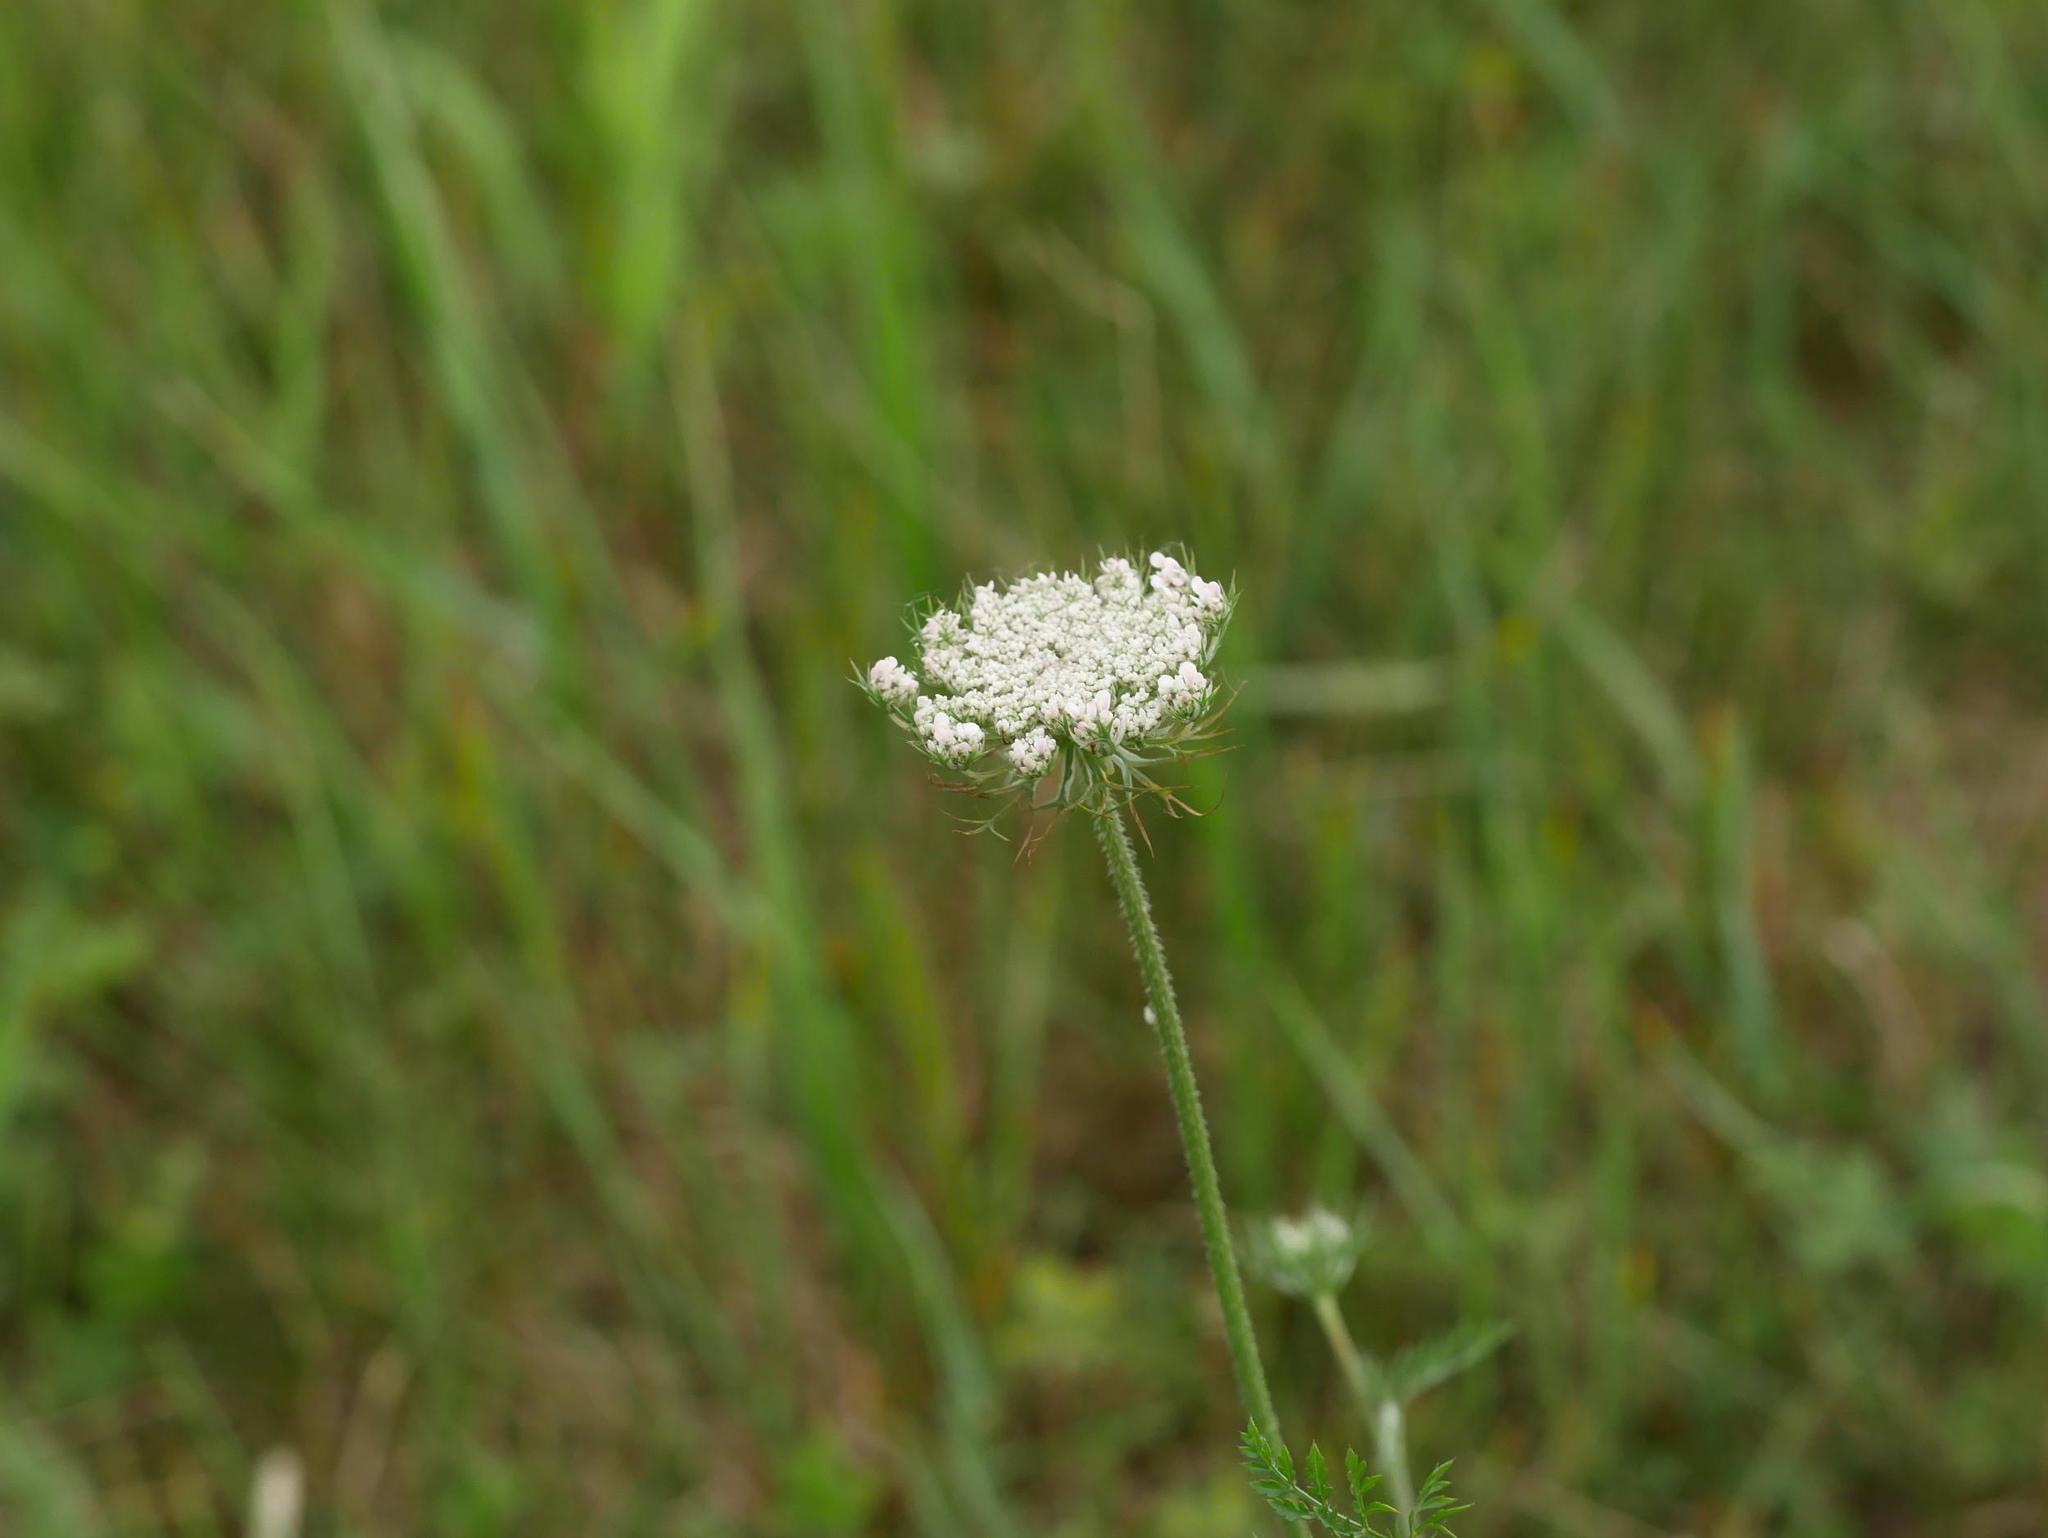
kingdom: Plantae
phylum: Tracheophyta
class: Magnoliopsida
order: Apiales
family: Apiaceae
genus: Daucus
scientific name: Daucus carota
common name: Wild carrot
